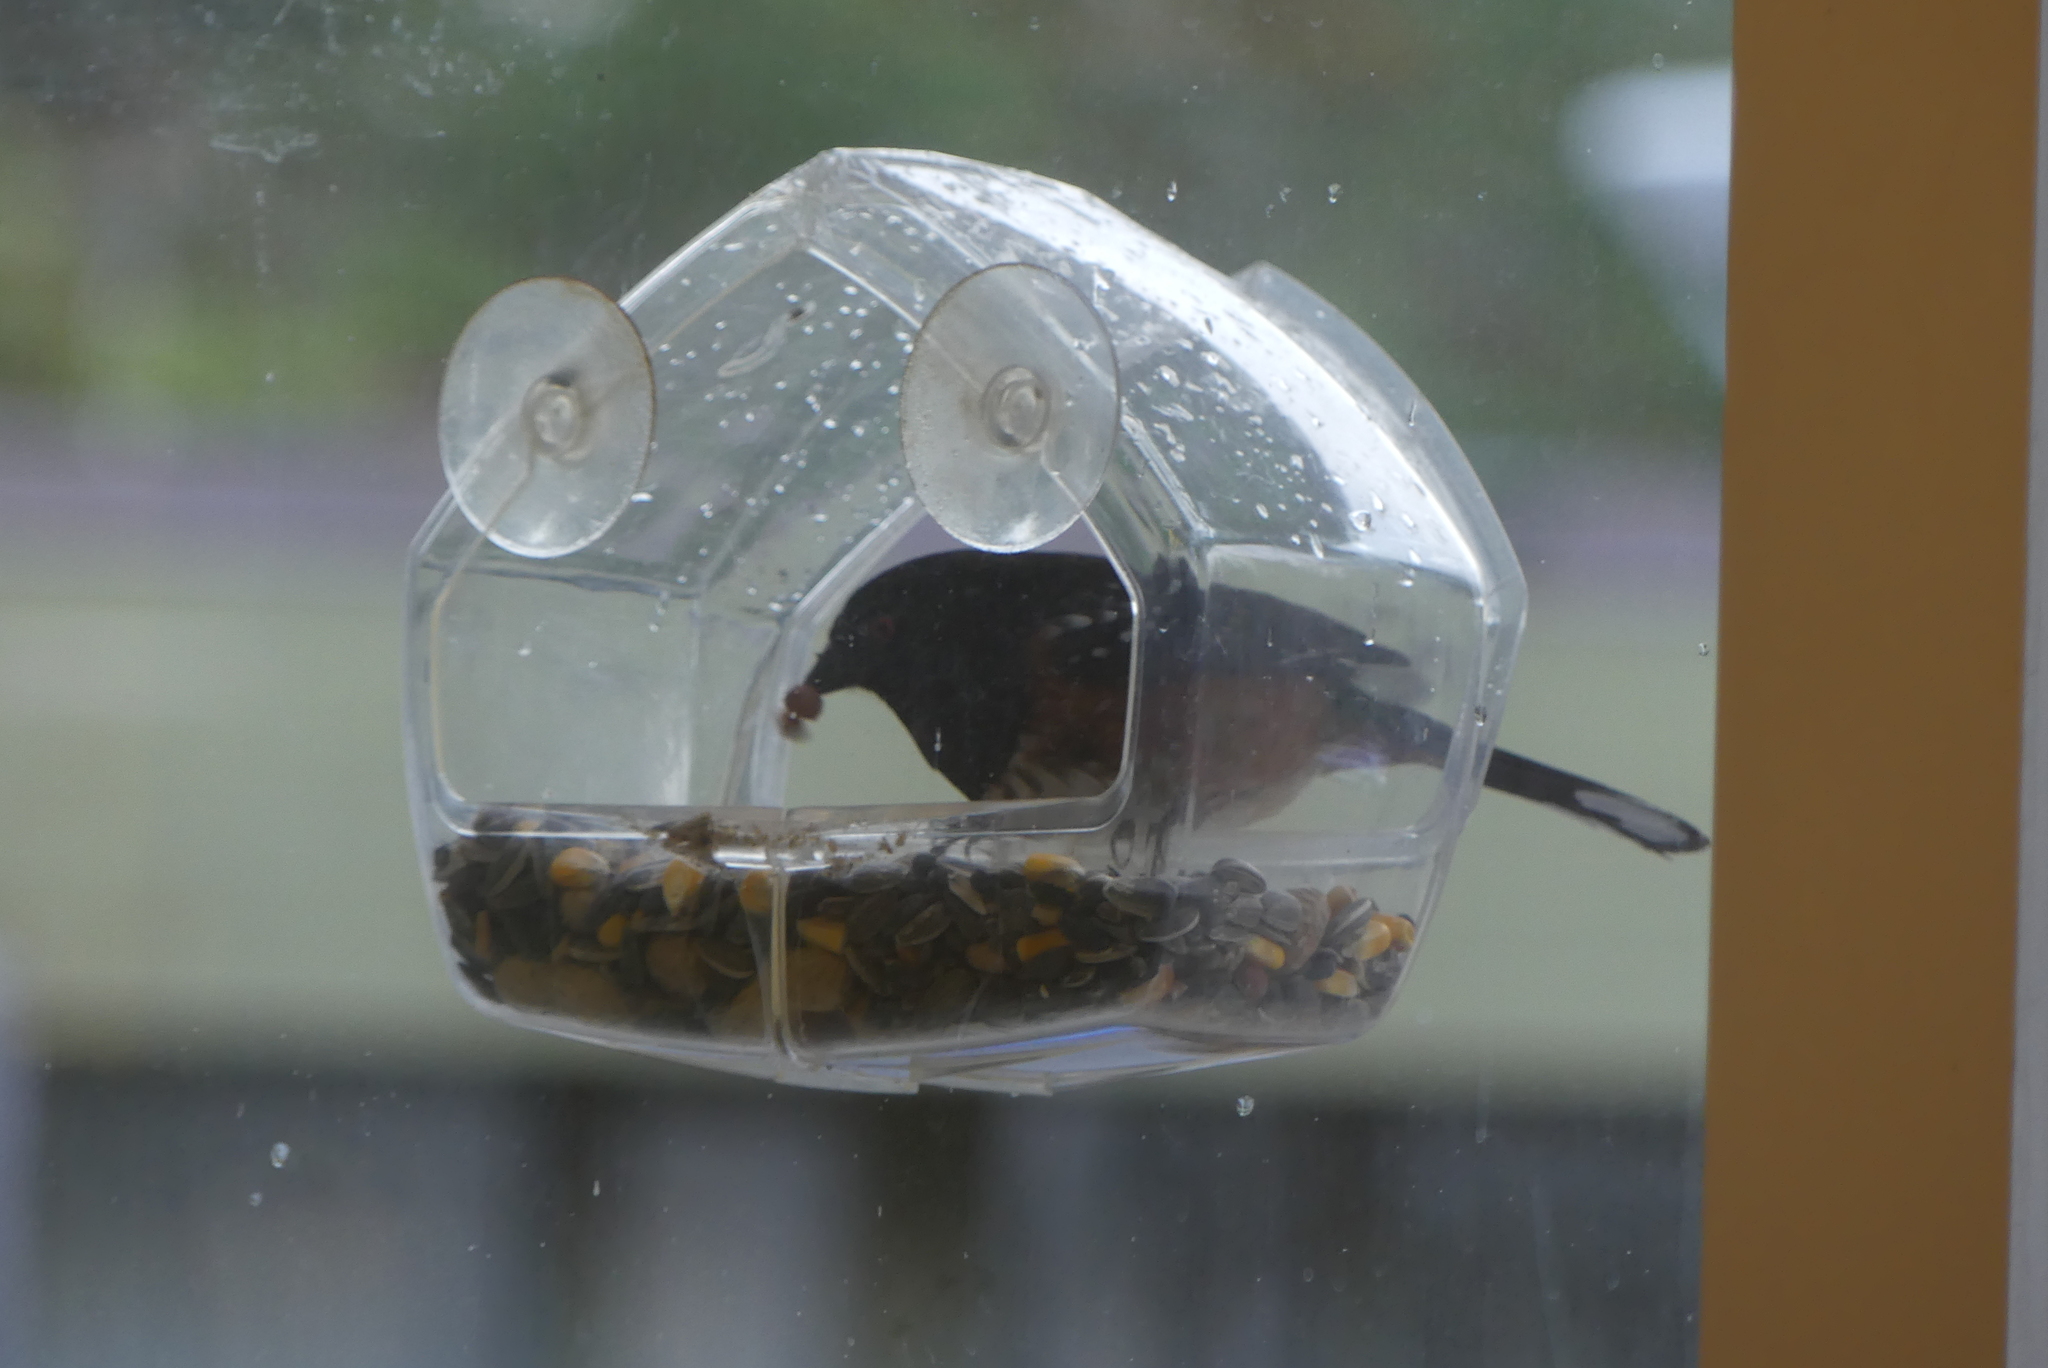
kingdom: Animalia
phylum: Chordata
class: Aves
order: Passeriformes
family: Passerellidae
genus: Pipilo
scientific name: Pipilo maculatus
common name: Spotted towhee
